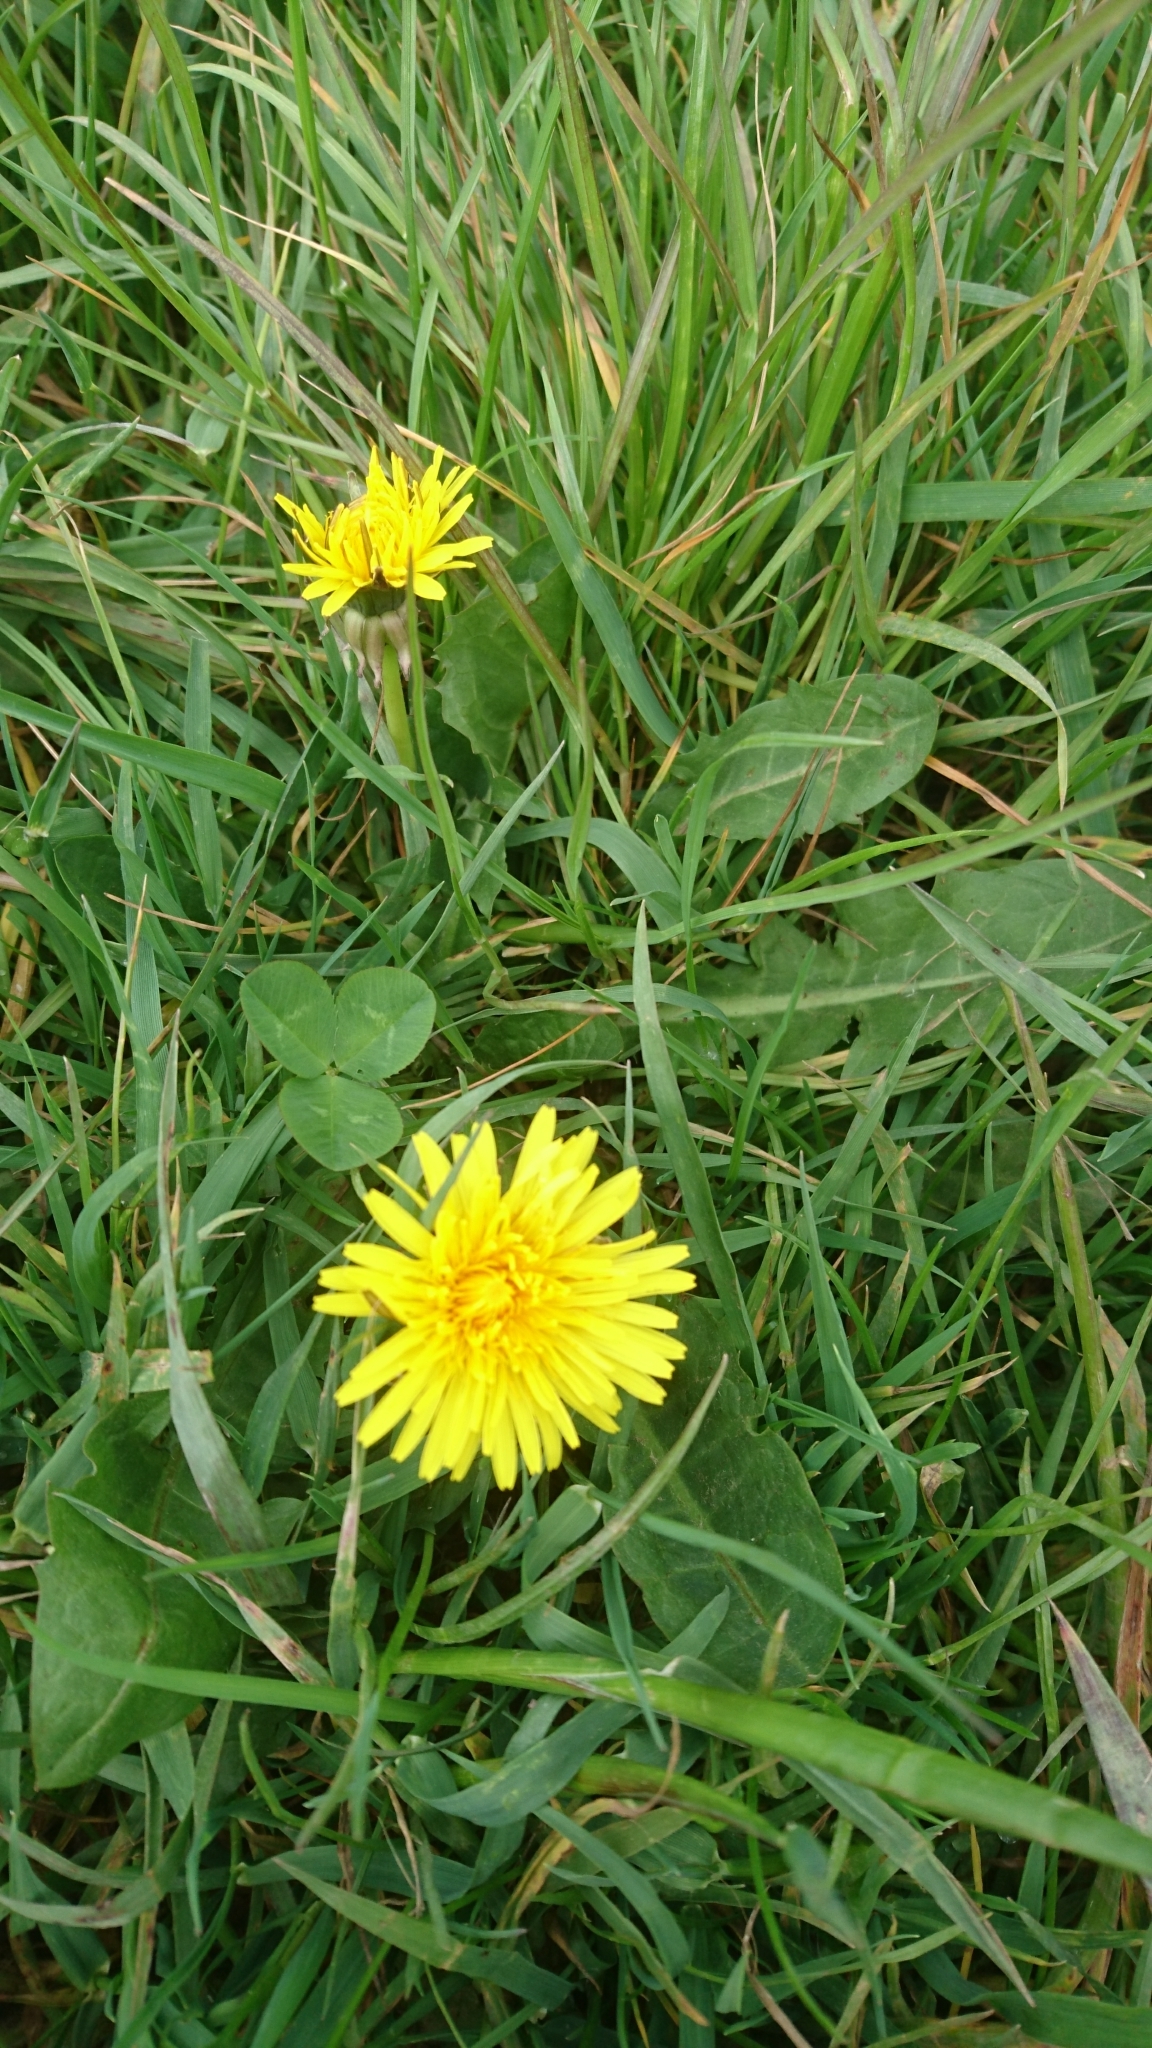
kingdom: Plantae
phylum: Tracheophyta
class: Magnoliopsida
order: Asterales
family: Asteraceae
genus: Taraxacum
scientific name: Taraxacum officinale
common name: Common dandelion
